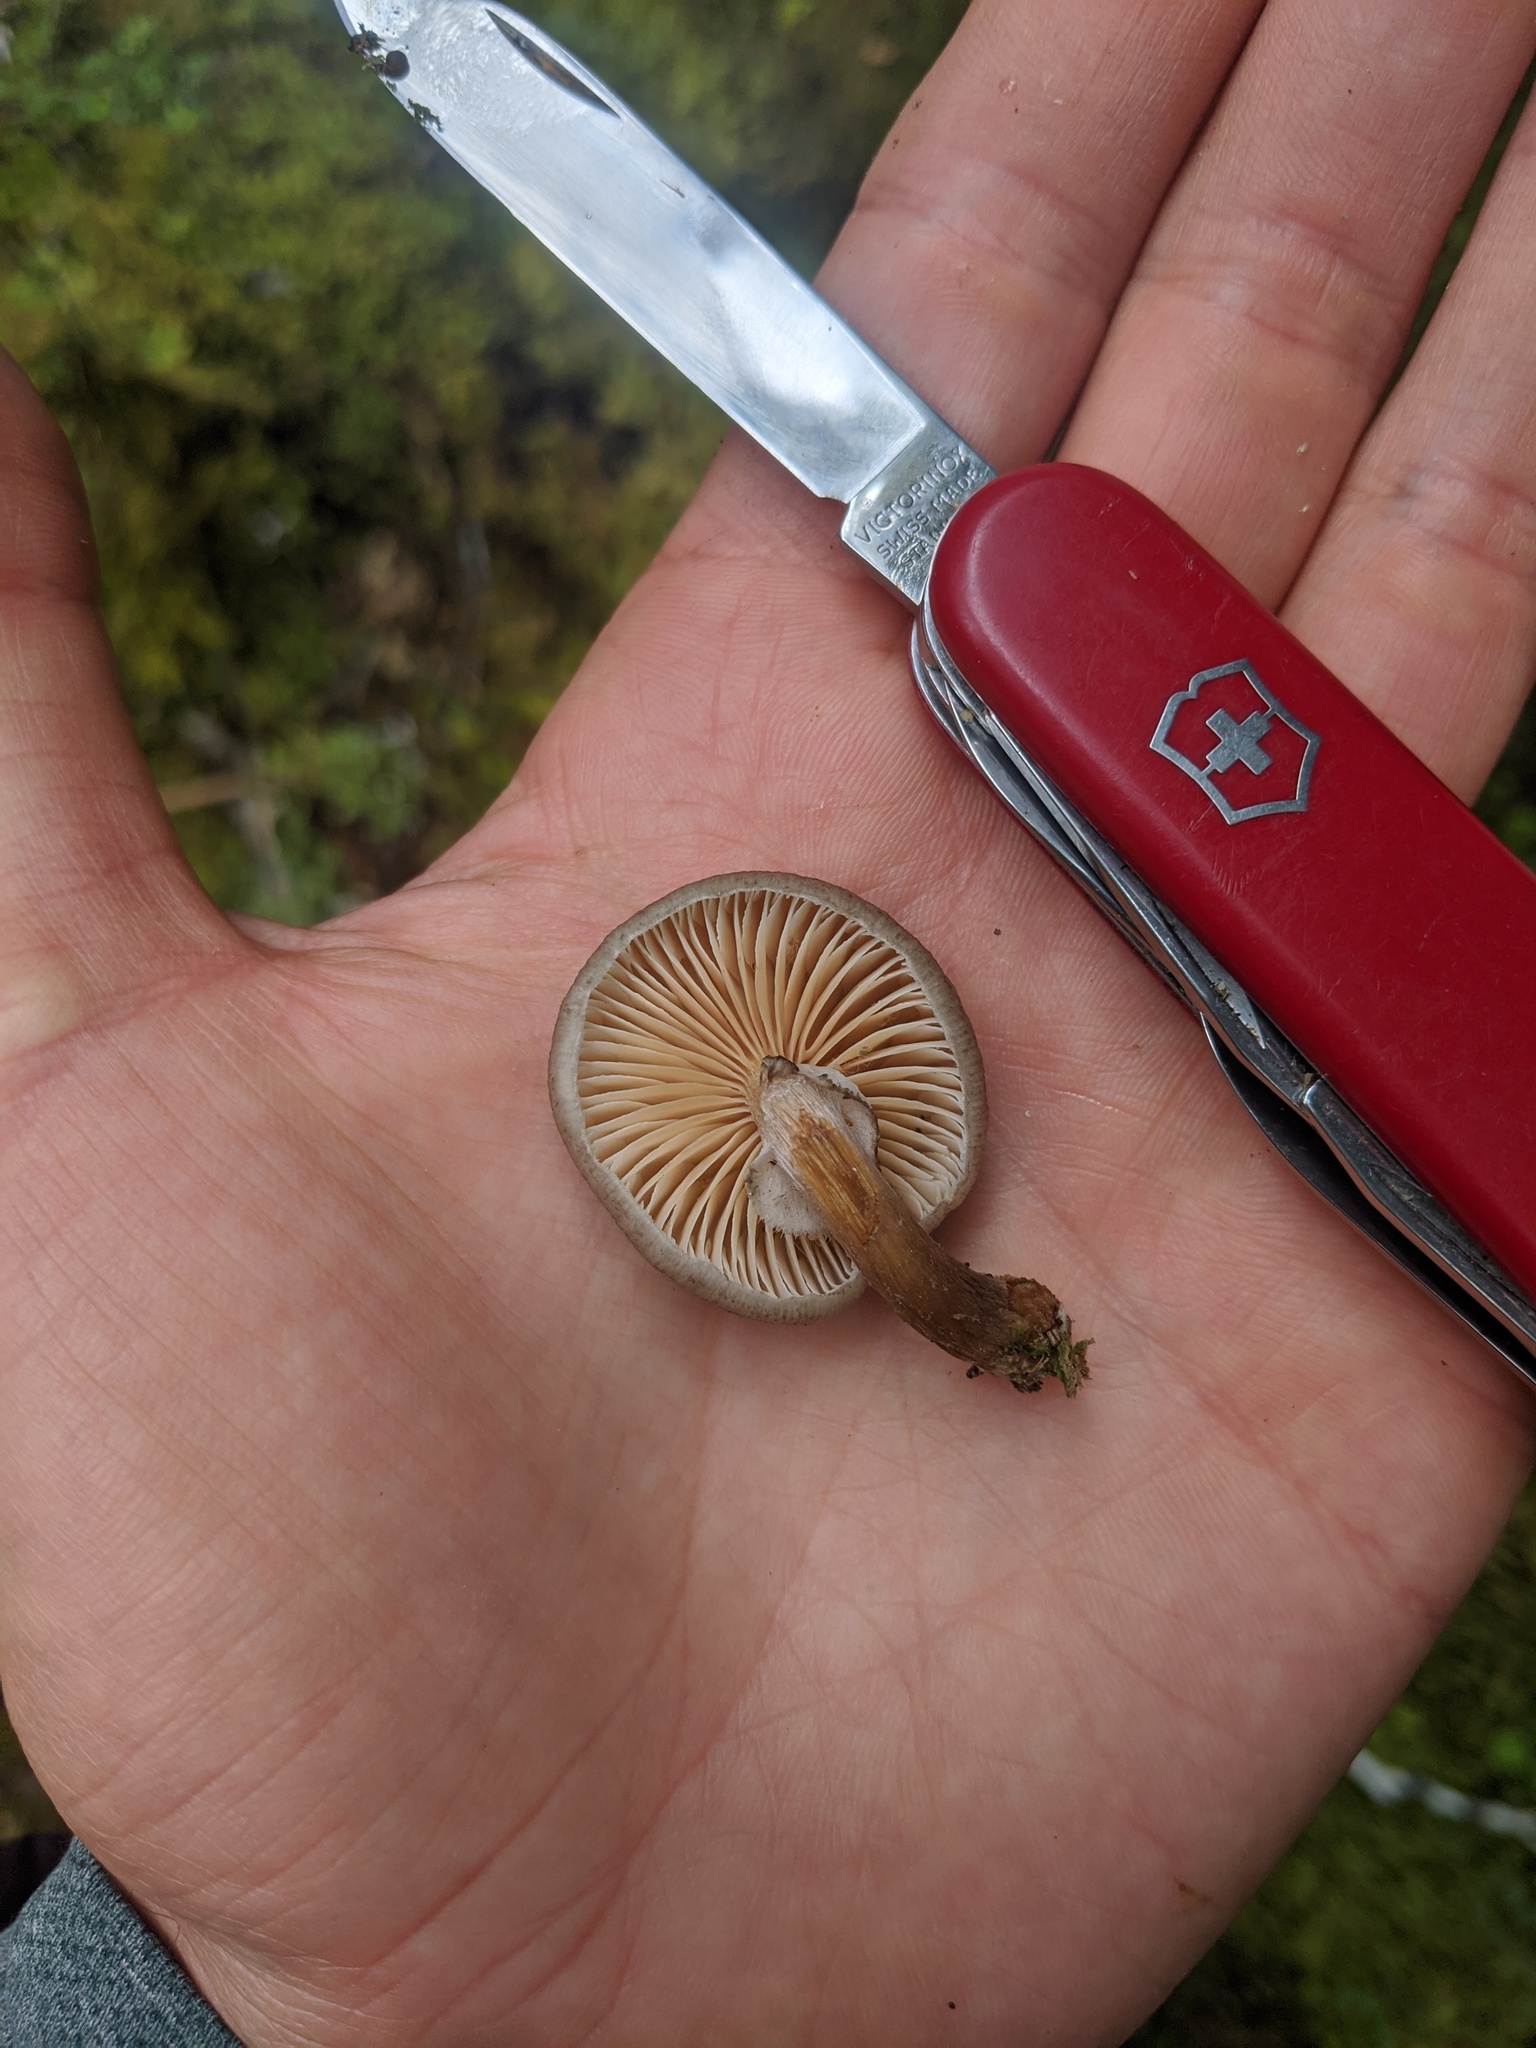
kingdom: Fungi
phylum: Basidiomycota
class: Agaricomycetes
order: Agaricales
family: Physalacriaceae
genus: Armillaria
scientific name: Armillaria novae-zelandiae
